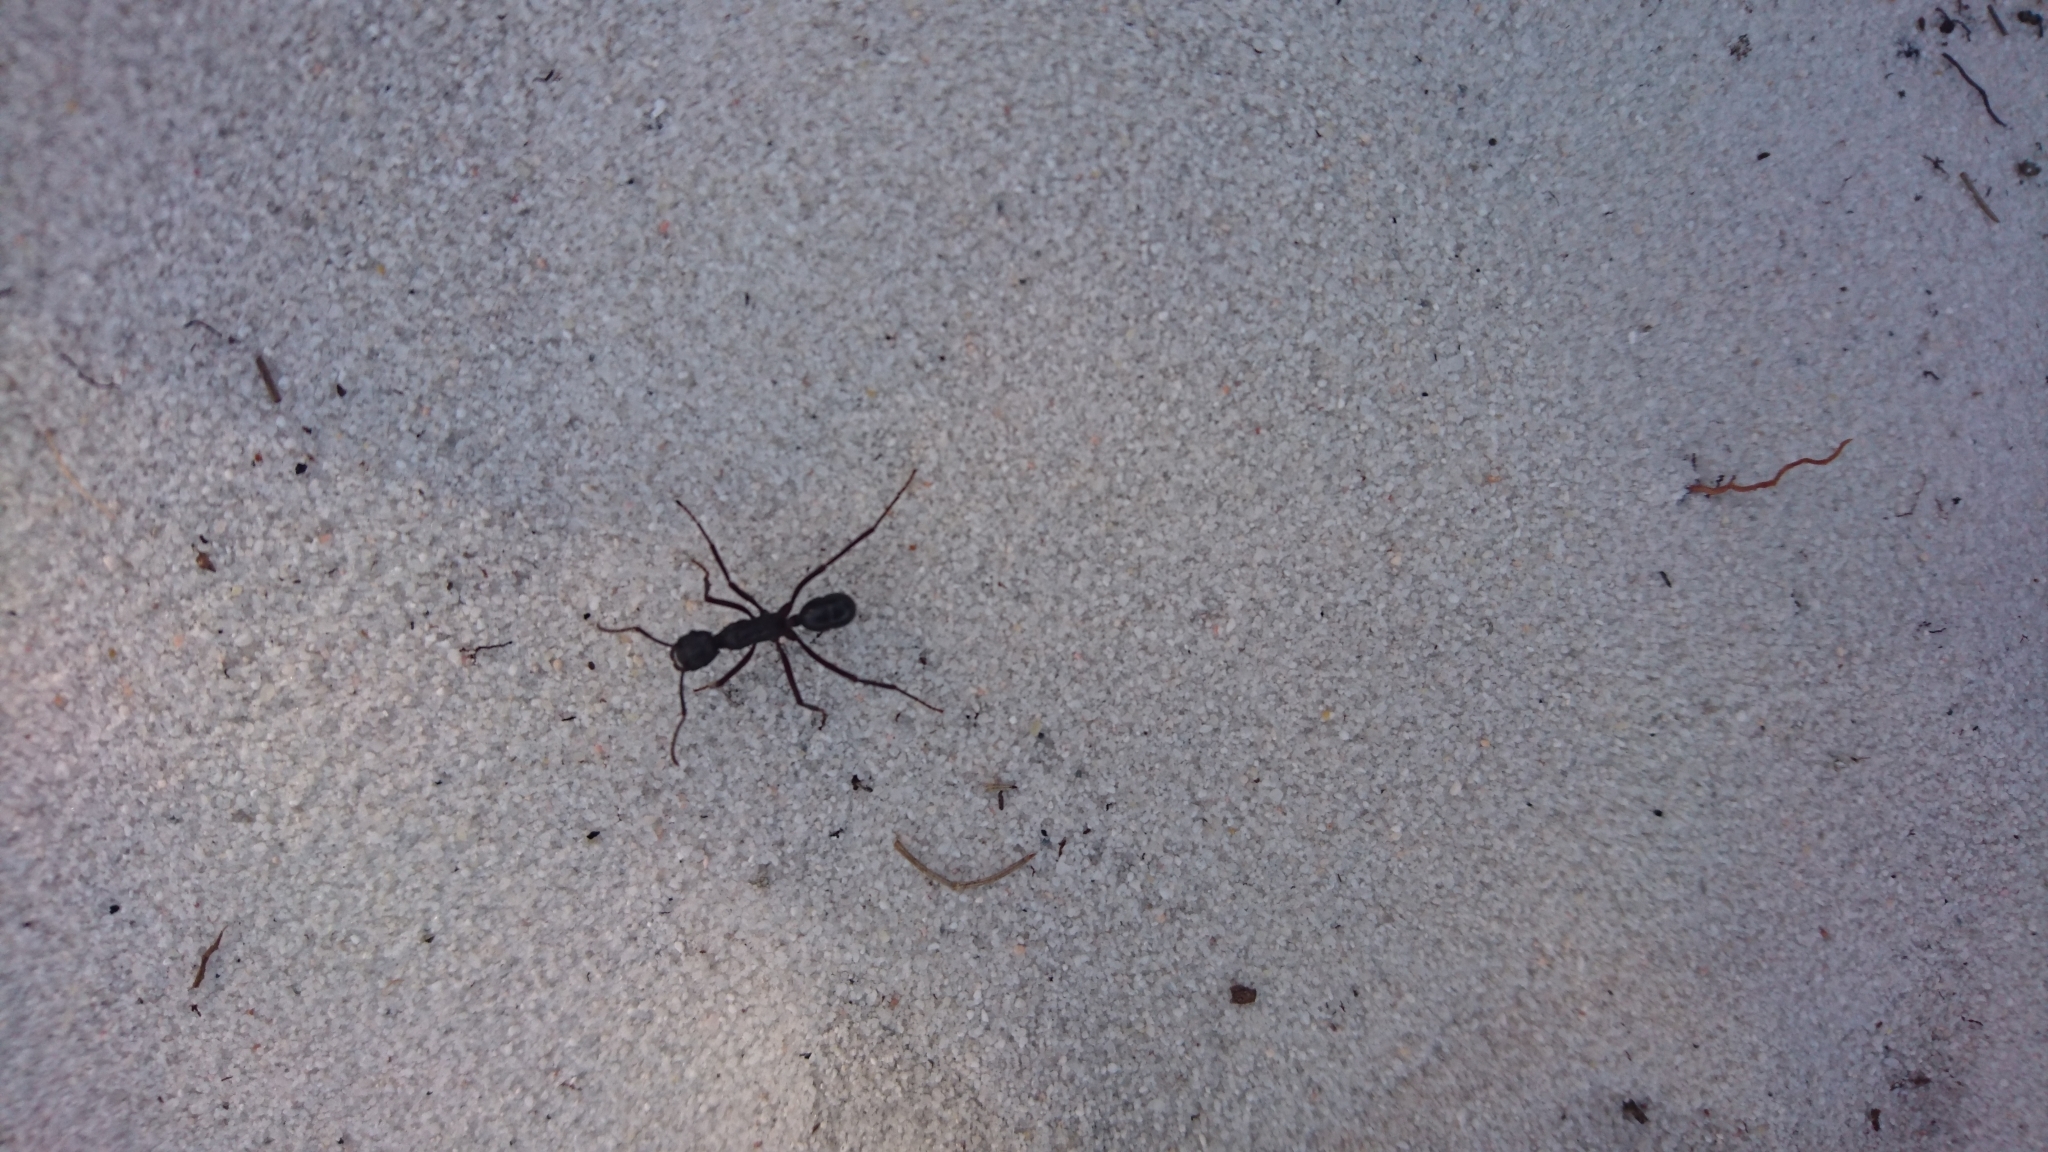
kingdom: Animalia
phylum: Arthropoda
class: Insecta
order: Hymenoptera
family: Formicidae
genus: Rhytidoponera
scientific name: Rhytidoponera
